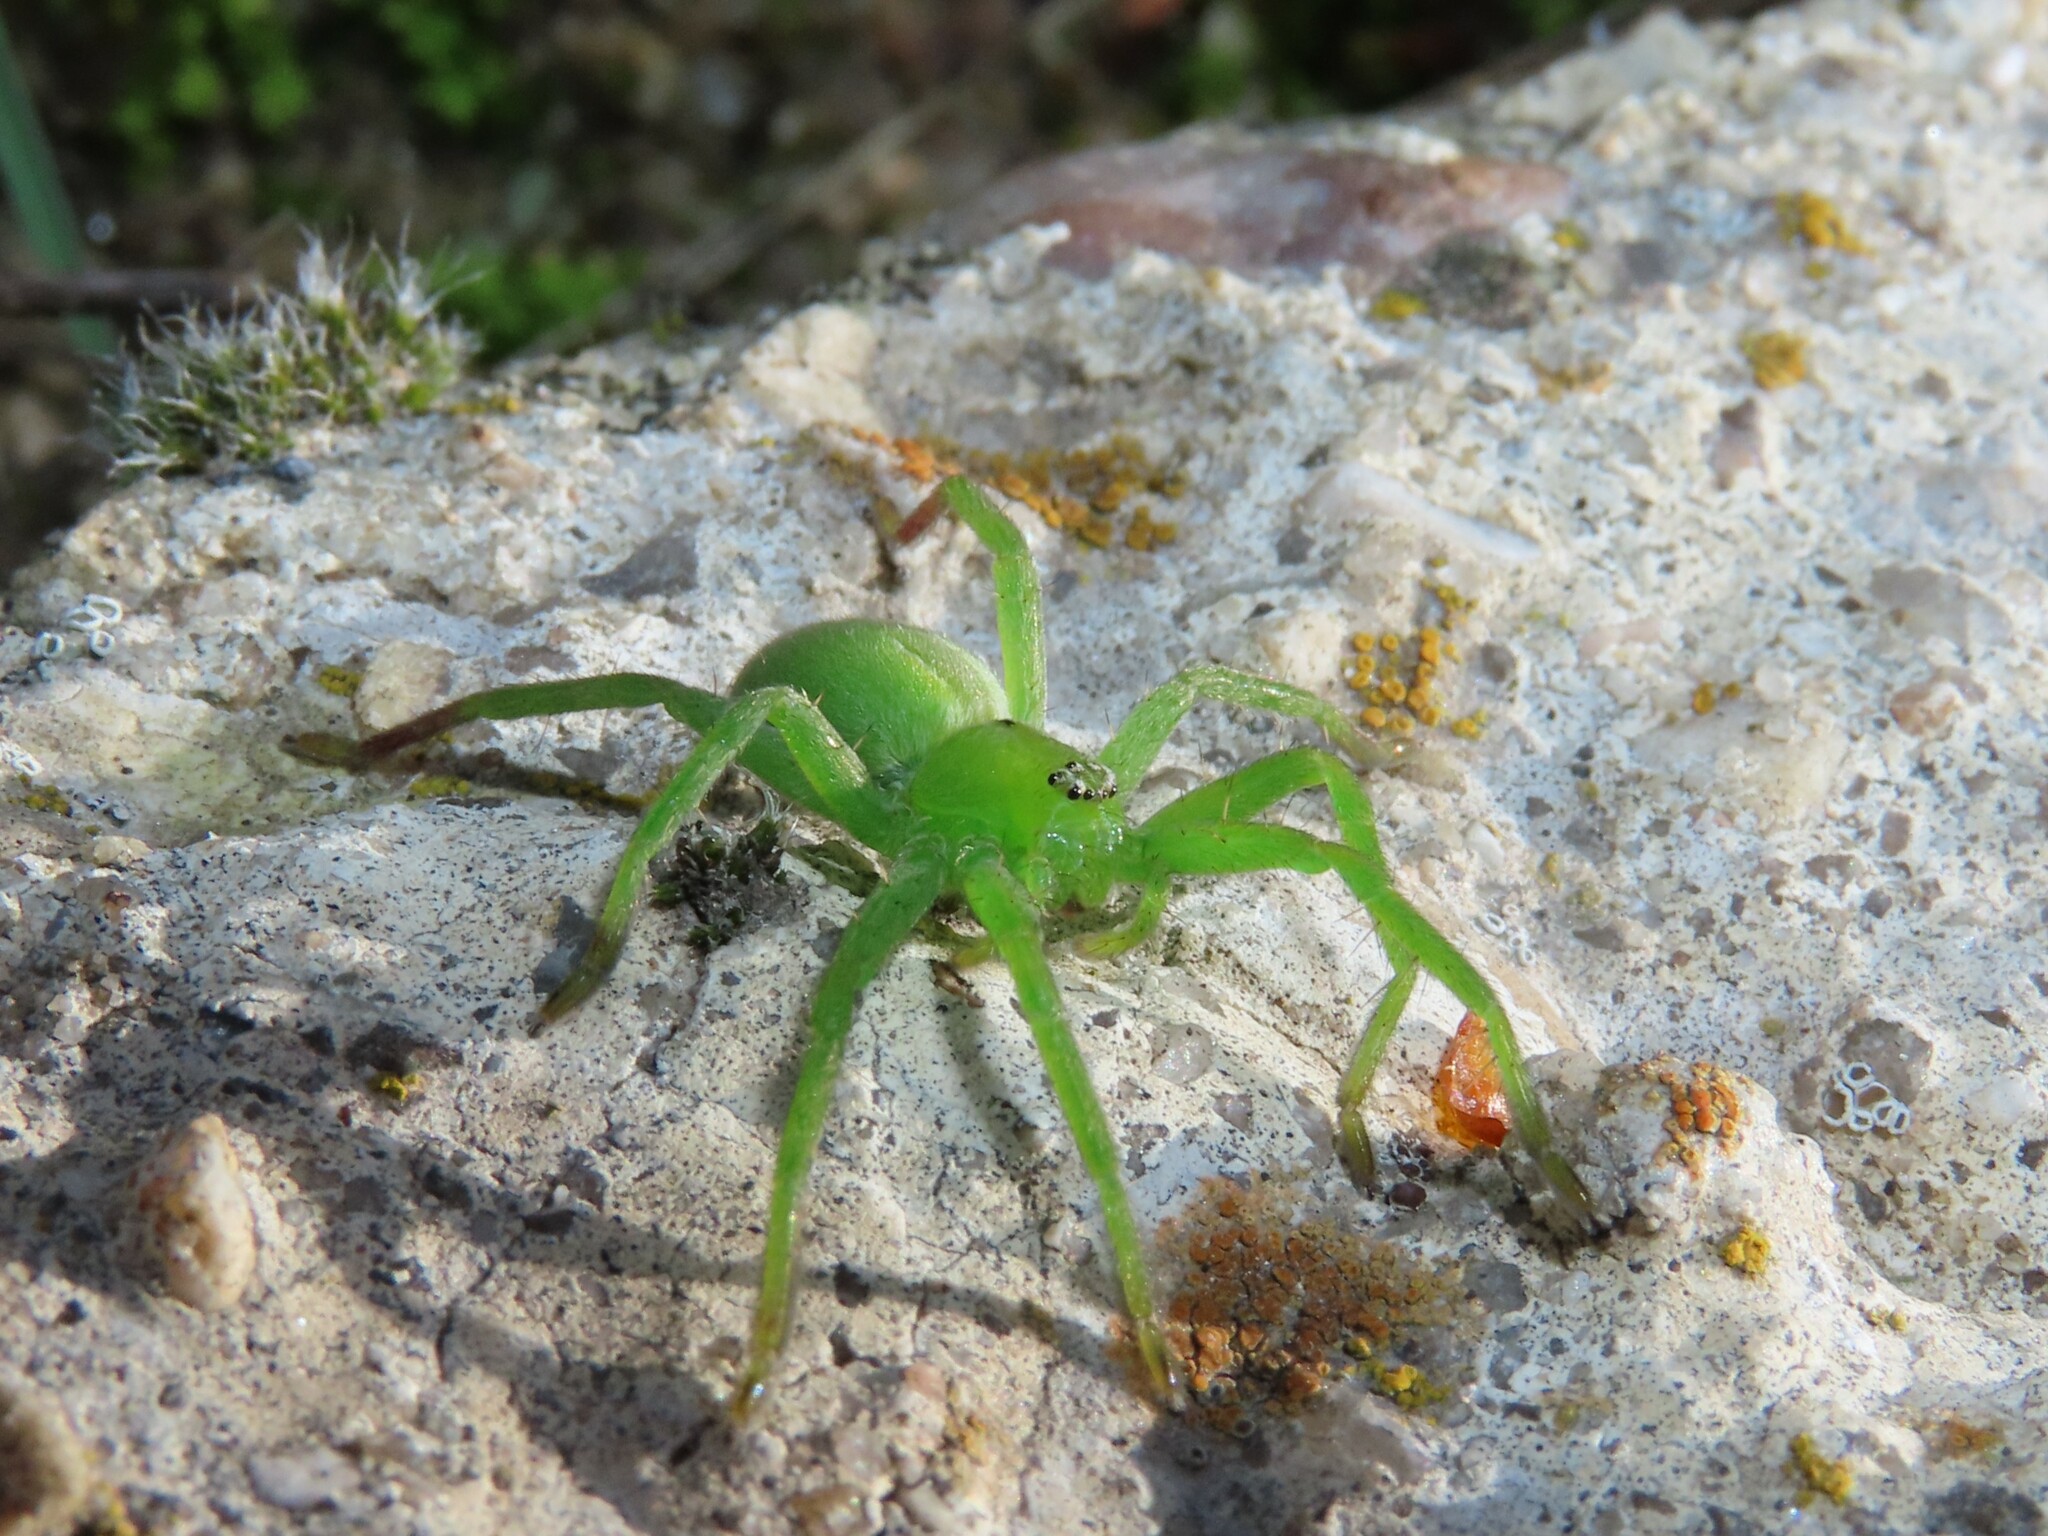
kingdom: Animalia
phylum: Arthropoda
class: Arachnida
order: Araneae
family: Sparassidae
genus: Micrommata
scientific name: Micrommata ligurina
